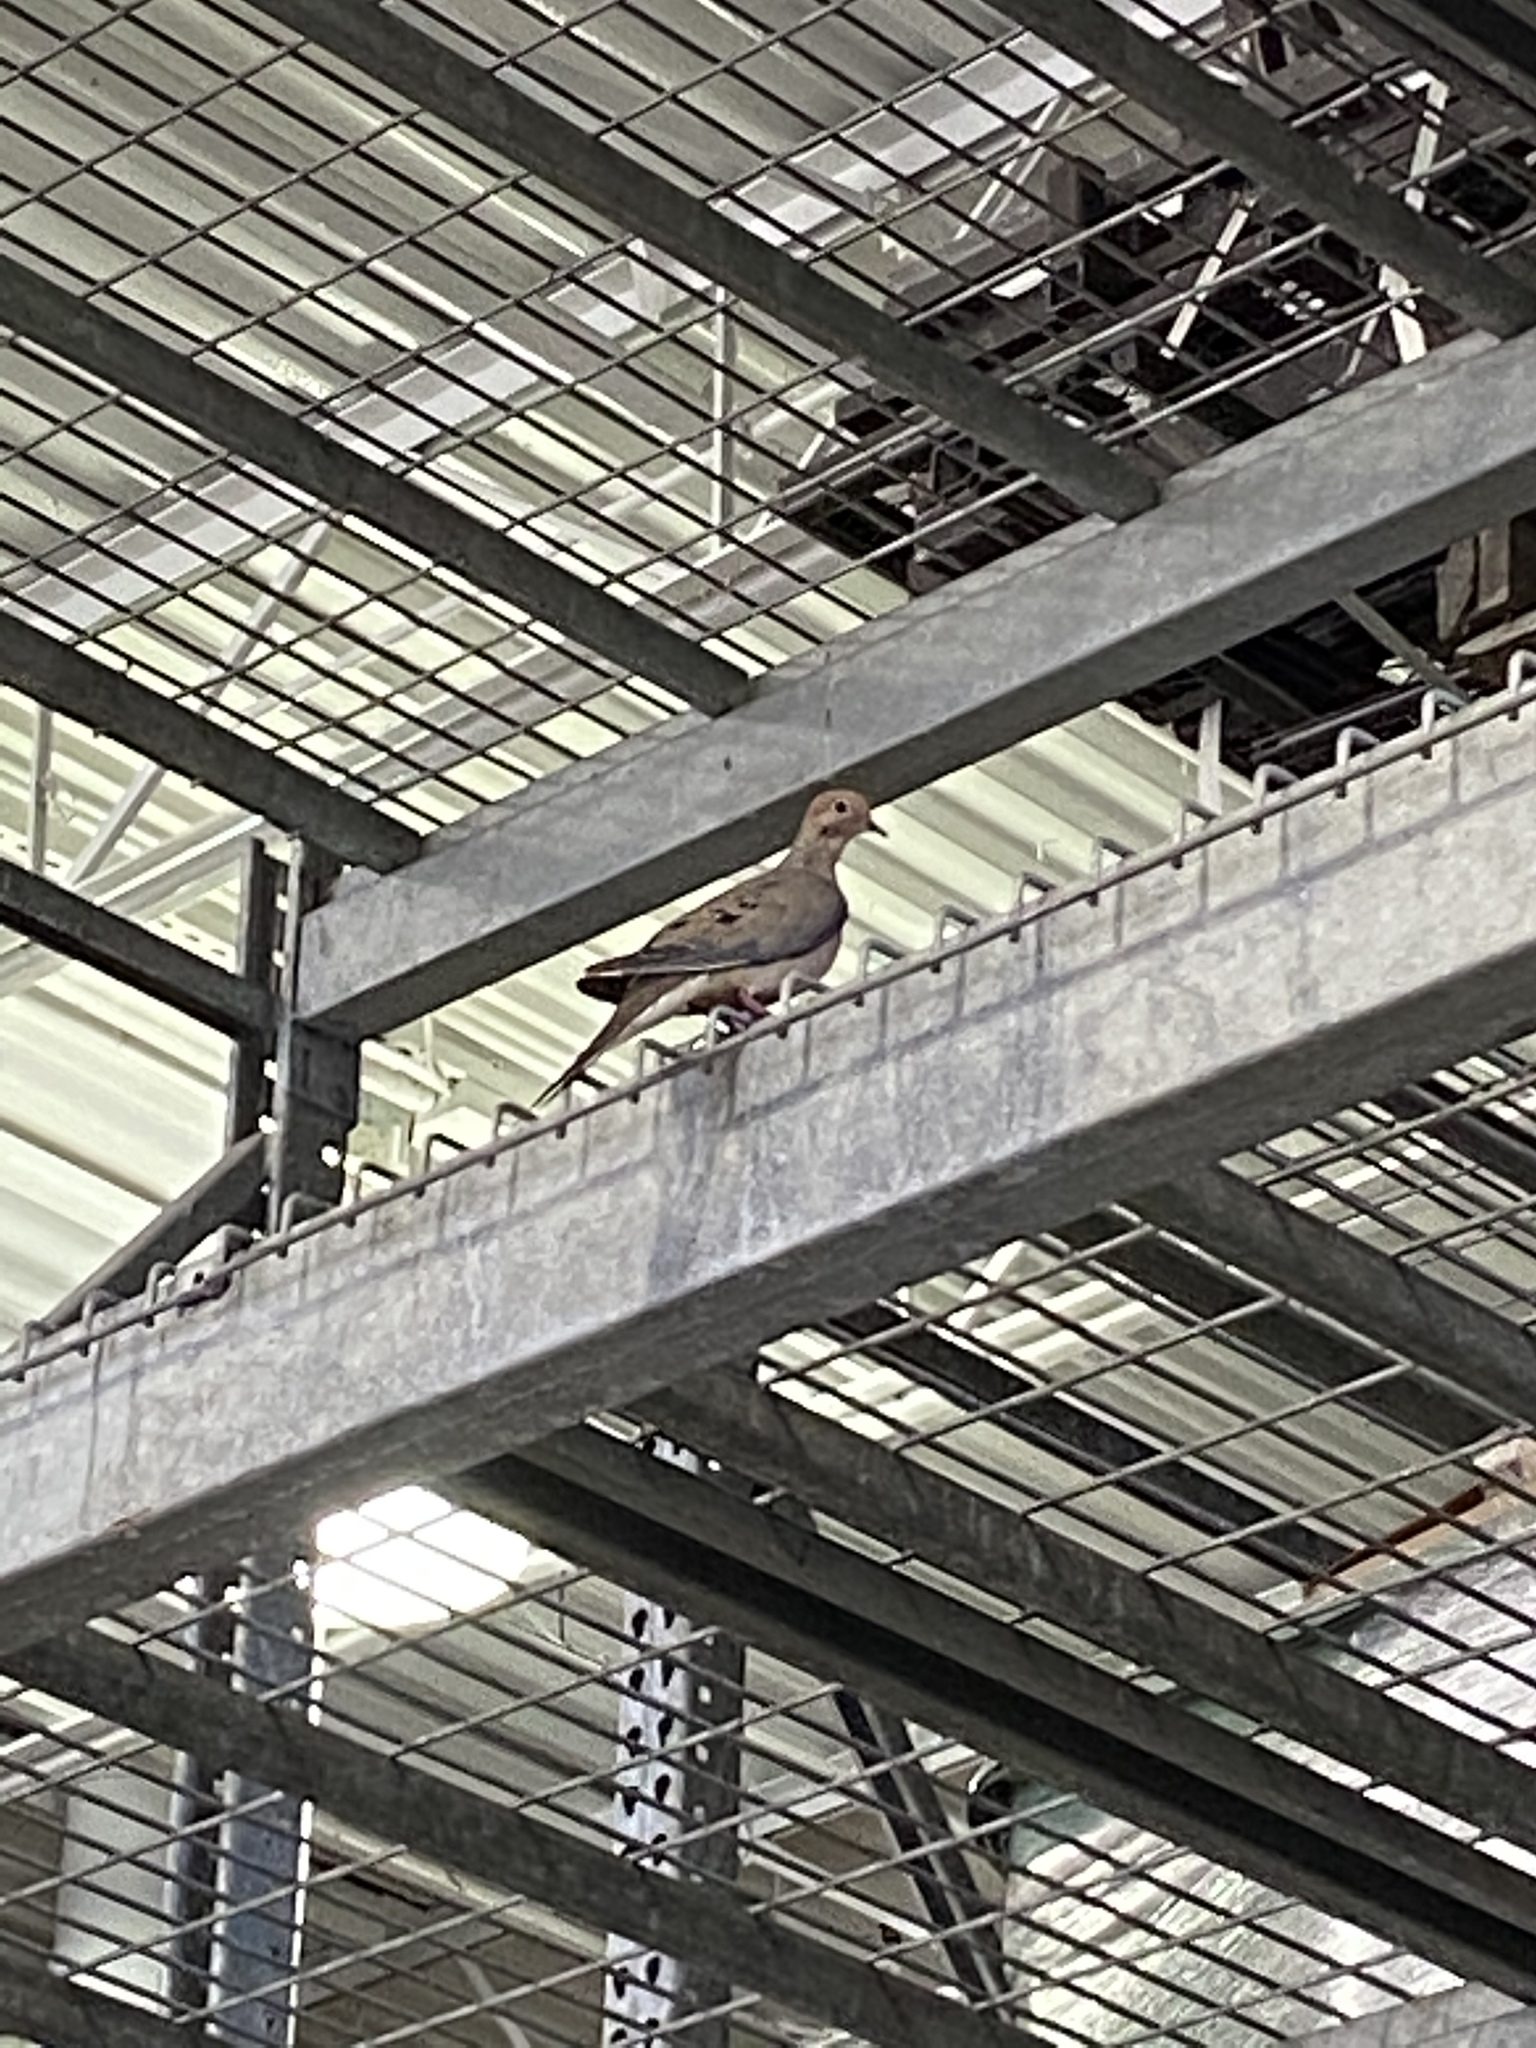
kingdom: Animalia
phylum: Chordata
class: Aves
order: Columbiformes
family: Columbidae
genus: Zenaida
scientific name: Zenaida macroura
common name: Mourning dove
